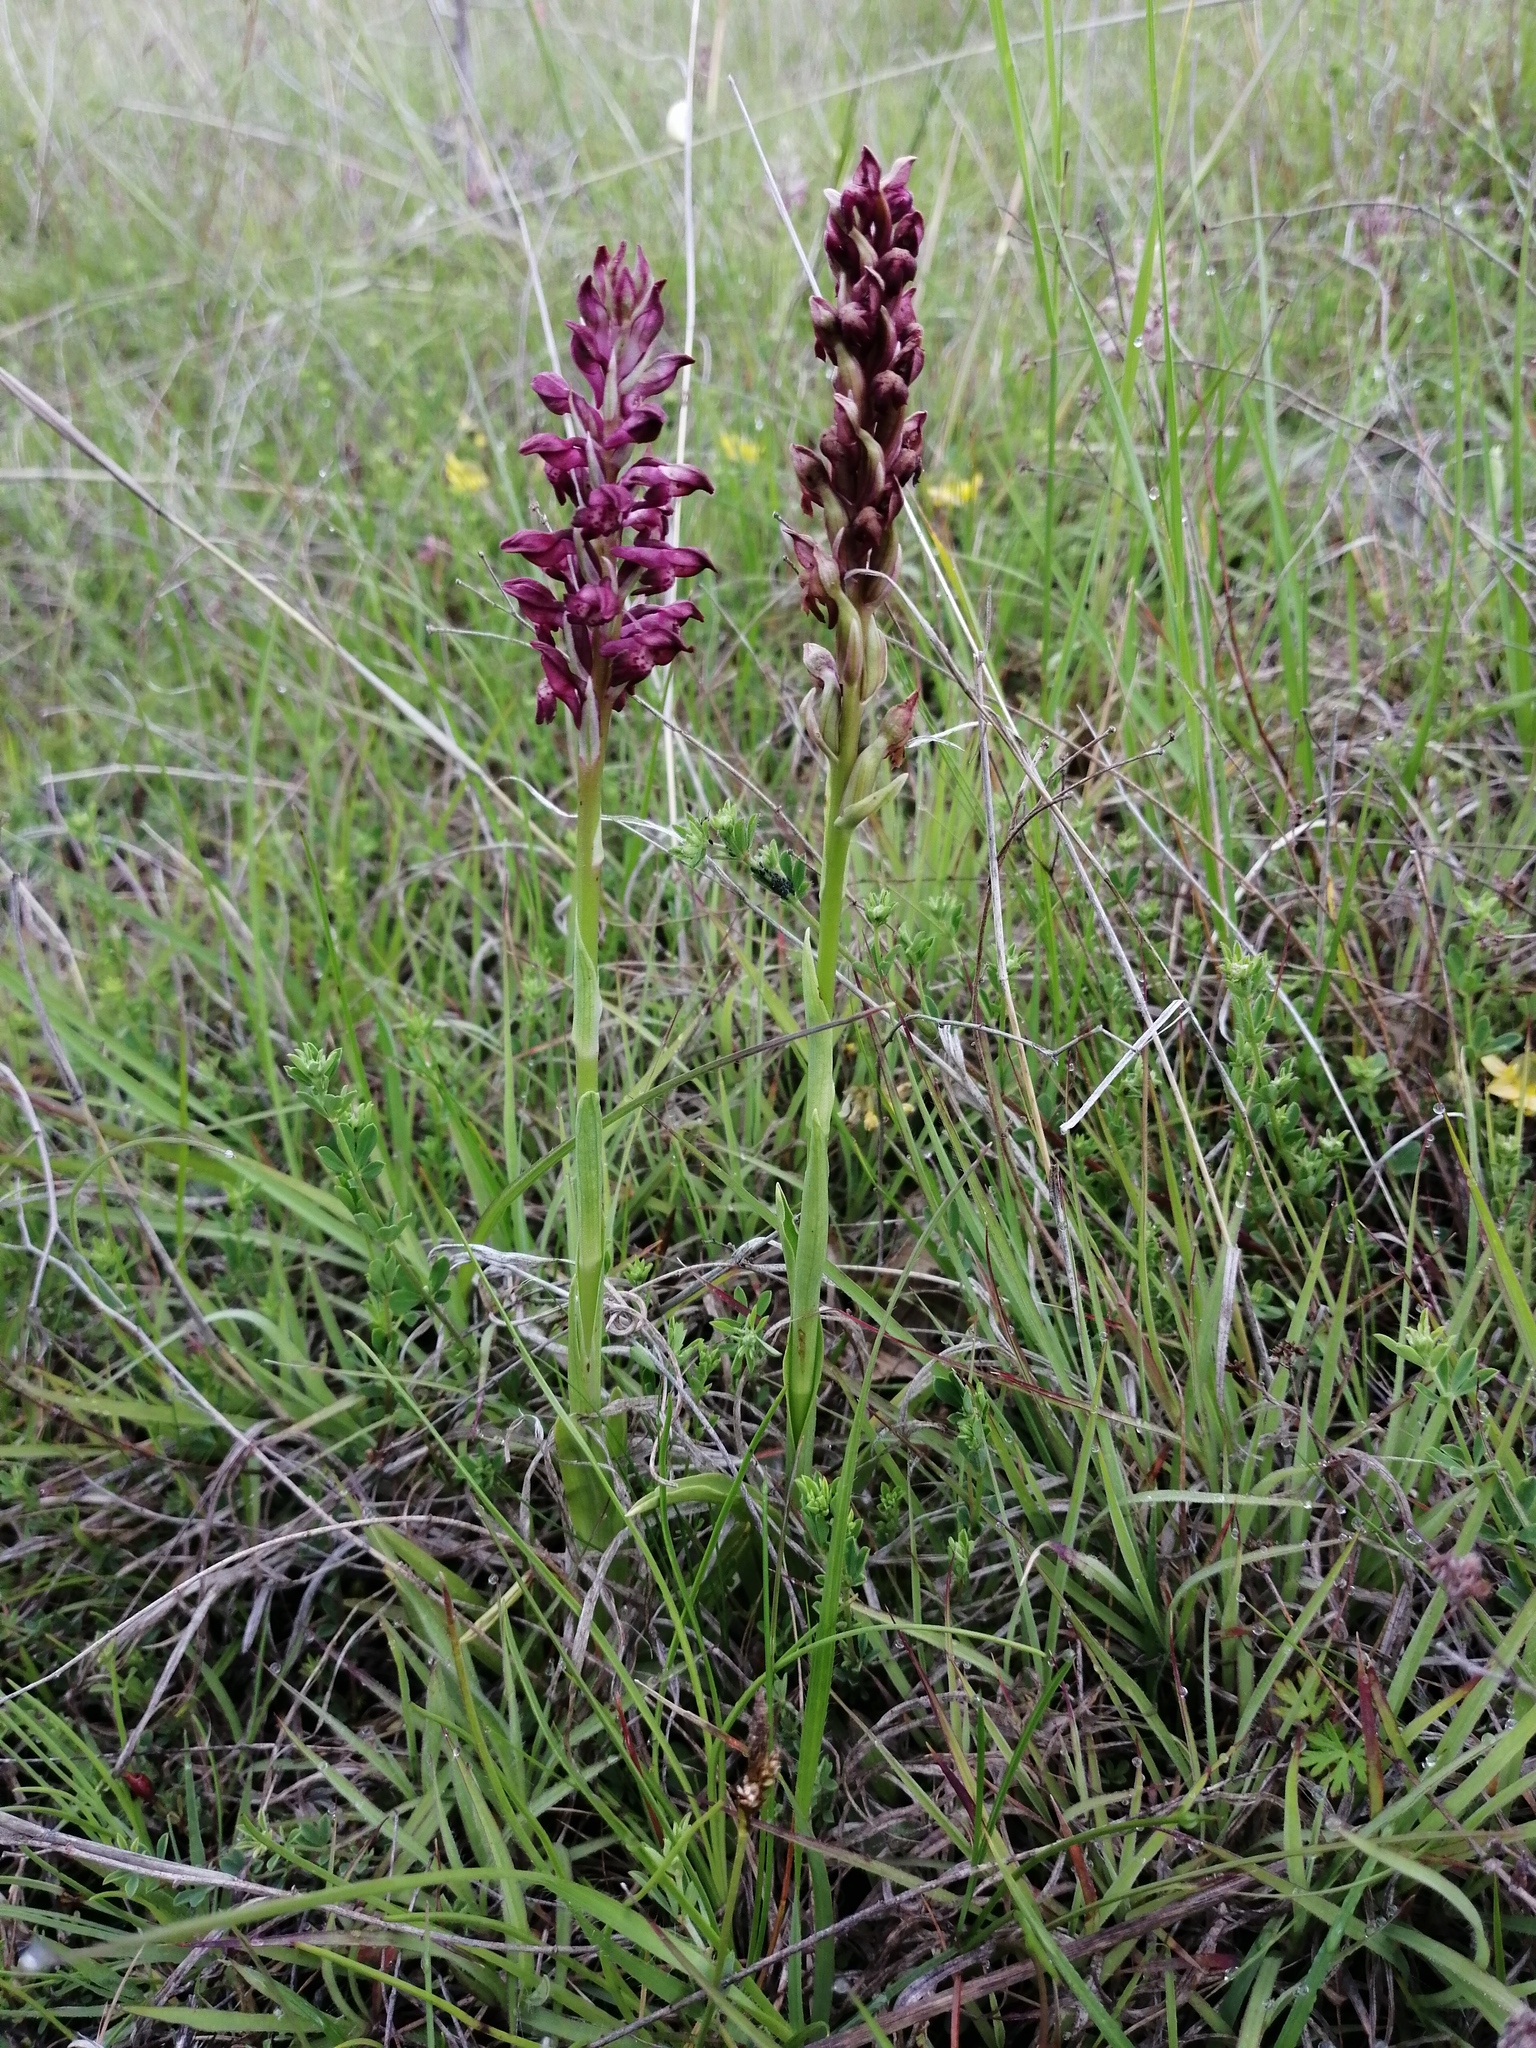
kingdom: Plantae
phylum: Tracheophyta
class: Liliopsida
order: Asparagales
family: Orchidaceae
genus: Anacamptis
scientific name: Anacamptis coriophora
